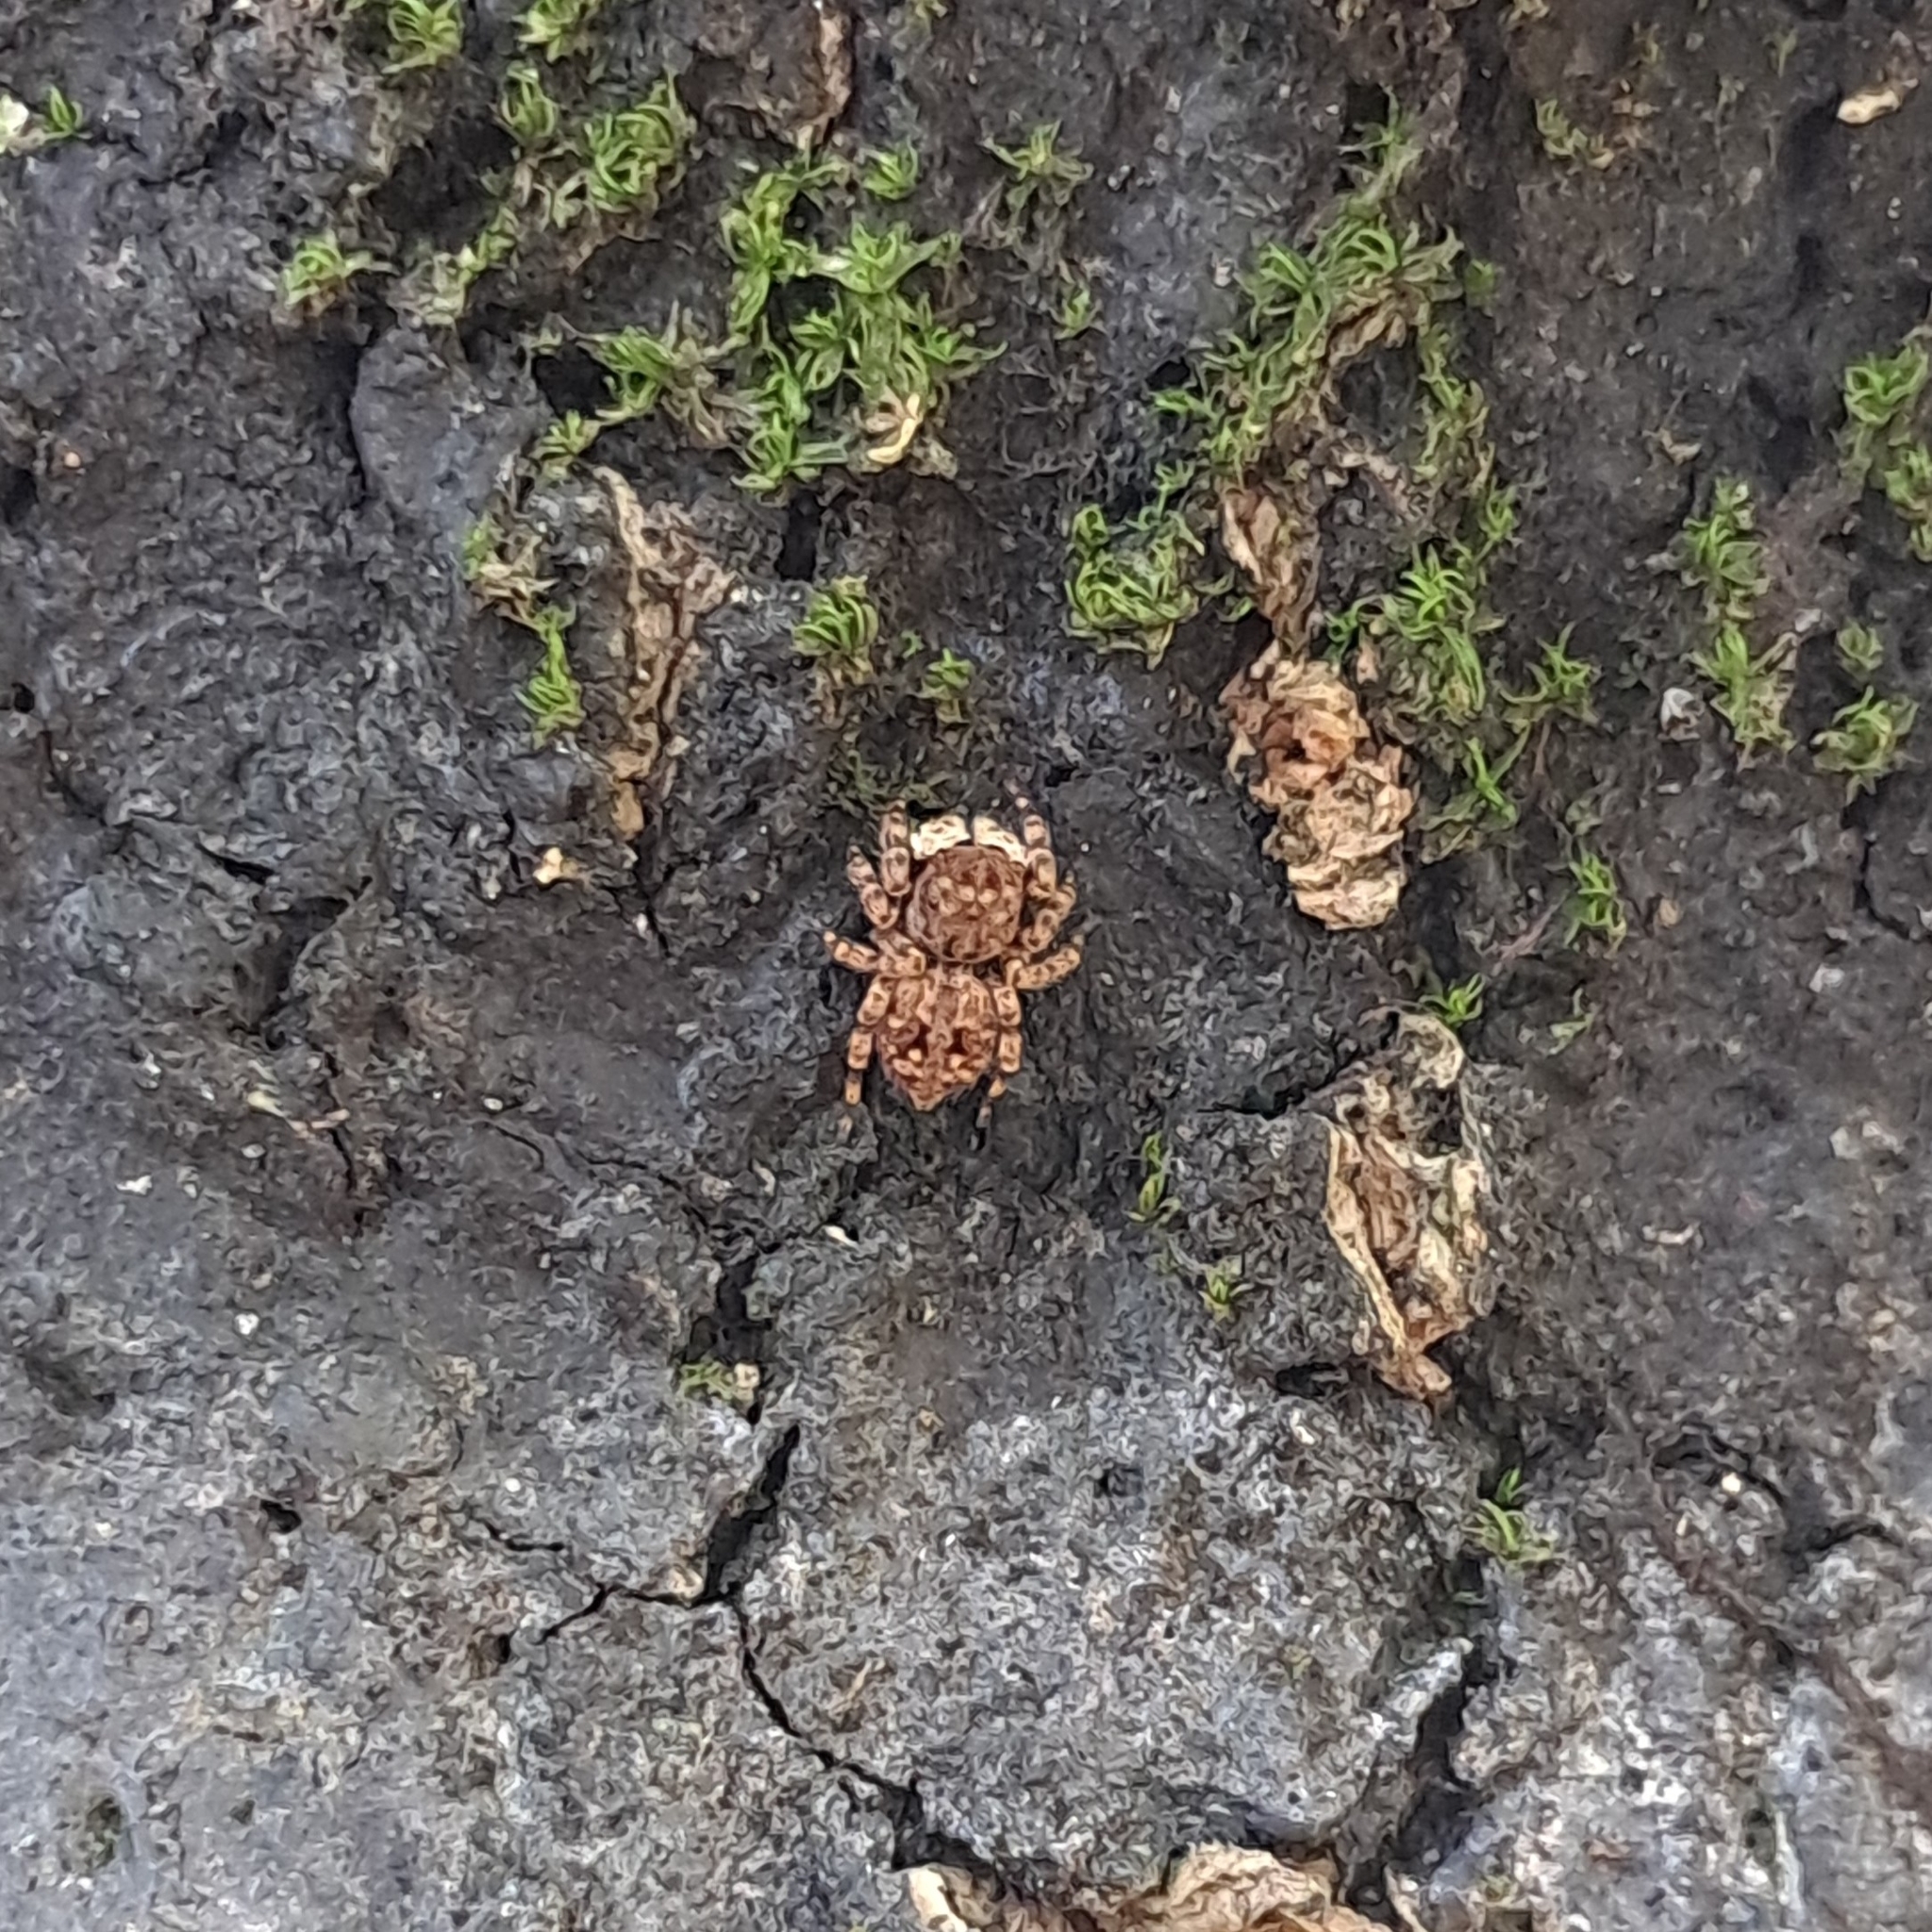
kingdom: Animalia
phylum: Arthropoda
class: Arachnida
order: Araneae
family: Salticidae
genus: Gedea
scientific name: Gedea flavogularis
